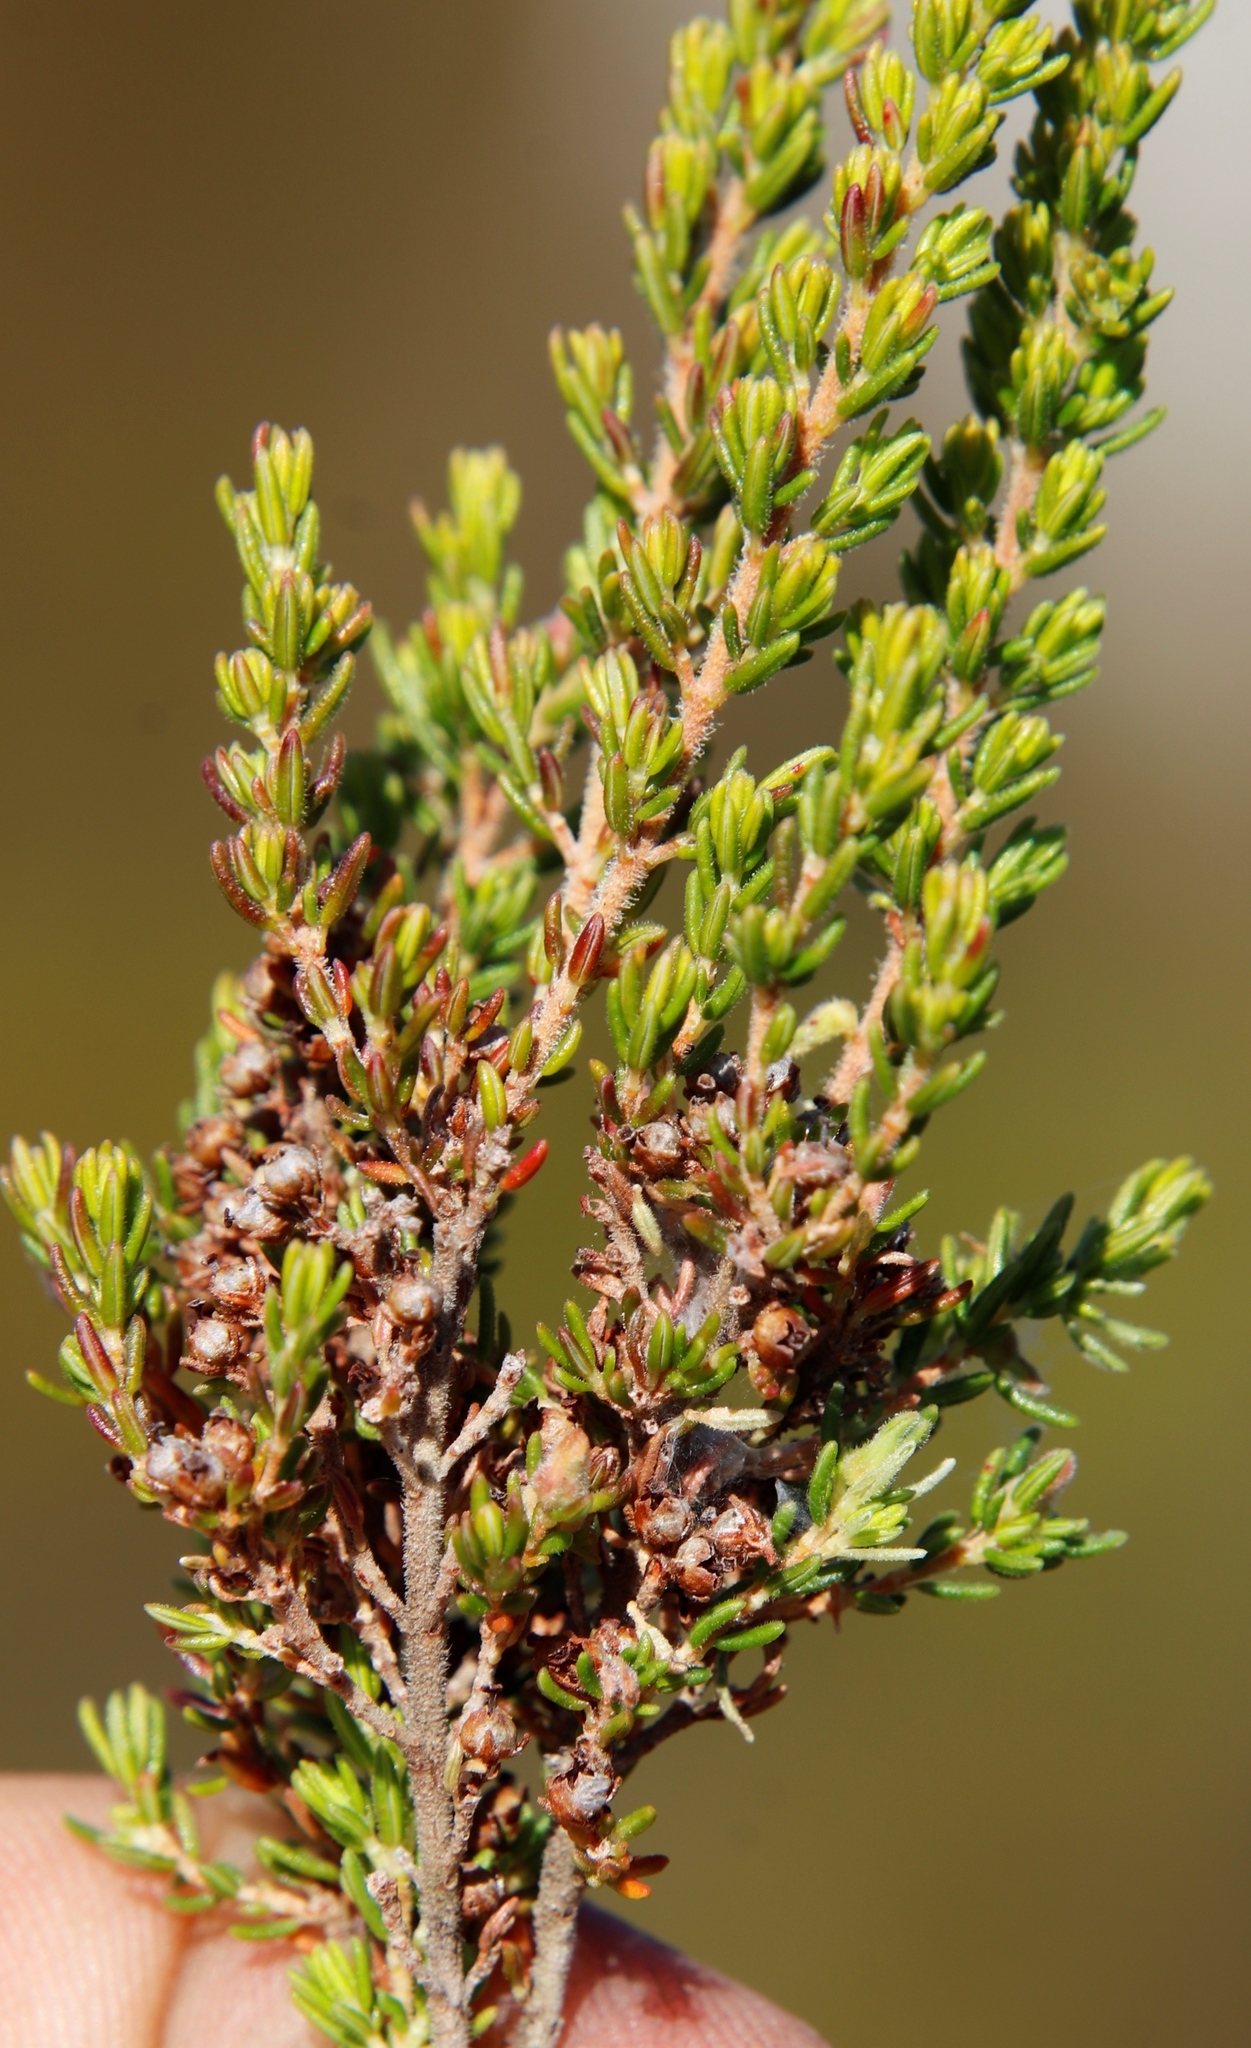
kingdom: Plantae
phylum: Tracheophyta
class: Magnoliopsida
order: Ericales
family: Ericaceae
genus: Erica
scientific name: Erica hispidula
